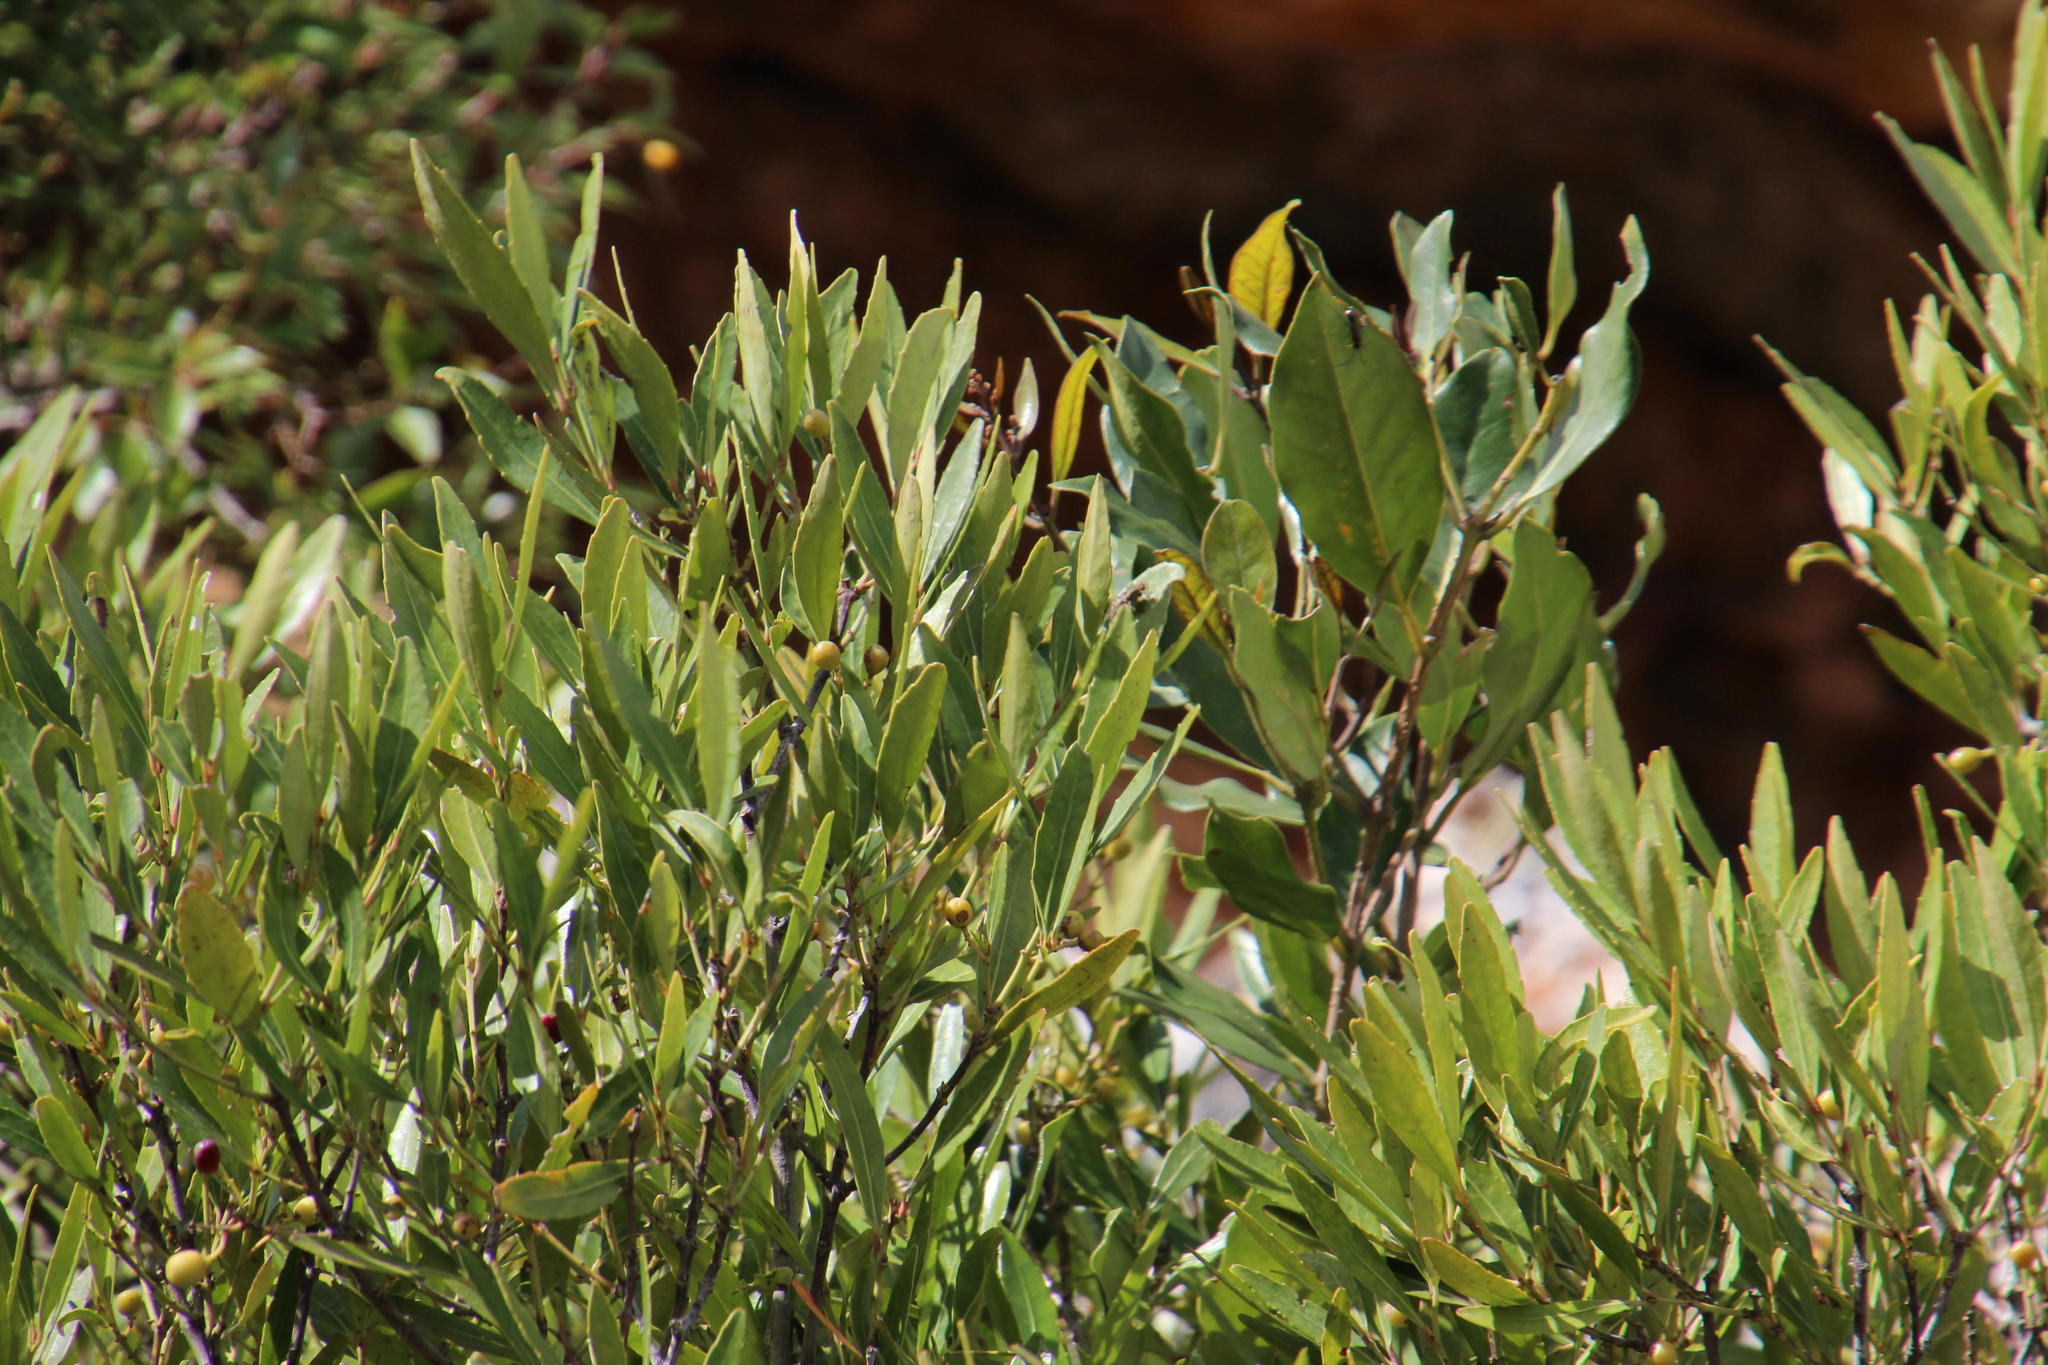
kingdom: Plantae
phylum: Tracheophyta
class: Magnoliopsida
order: Celastrales
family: Celastraceae
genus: Elaeodendron
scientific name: Elaeodendron schinoides
